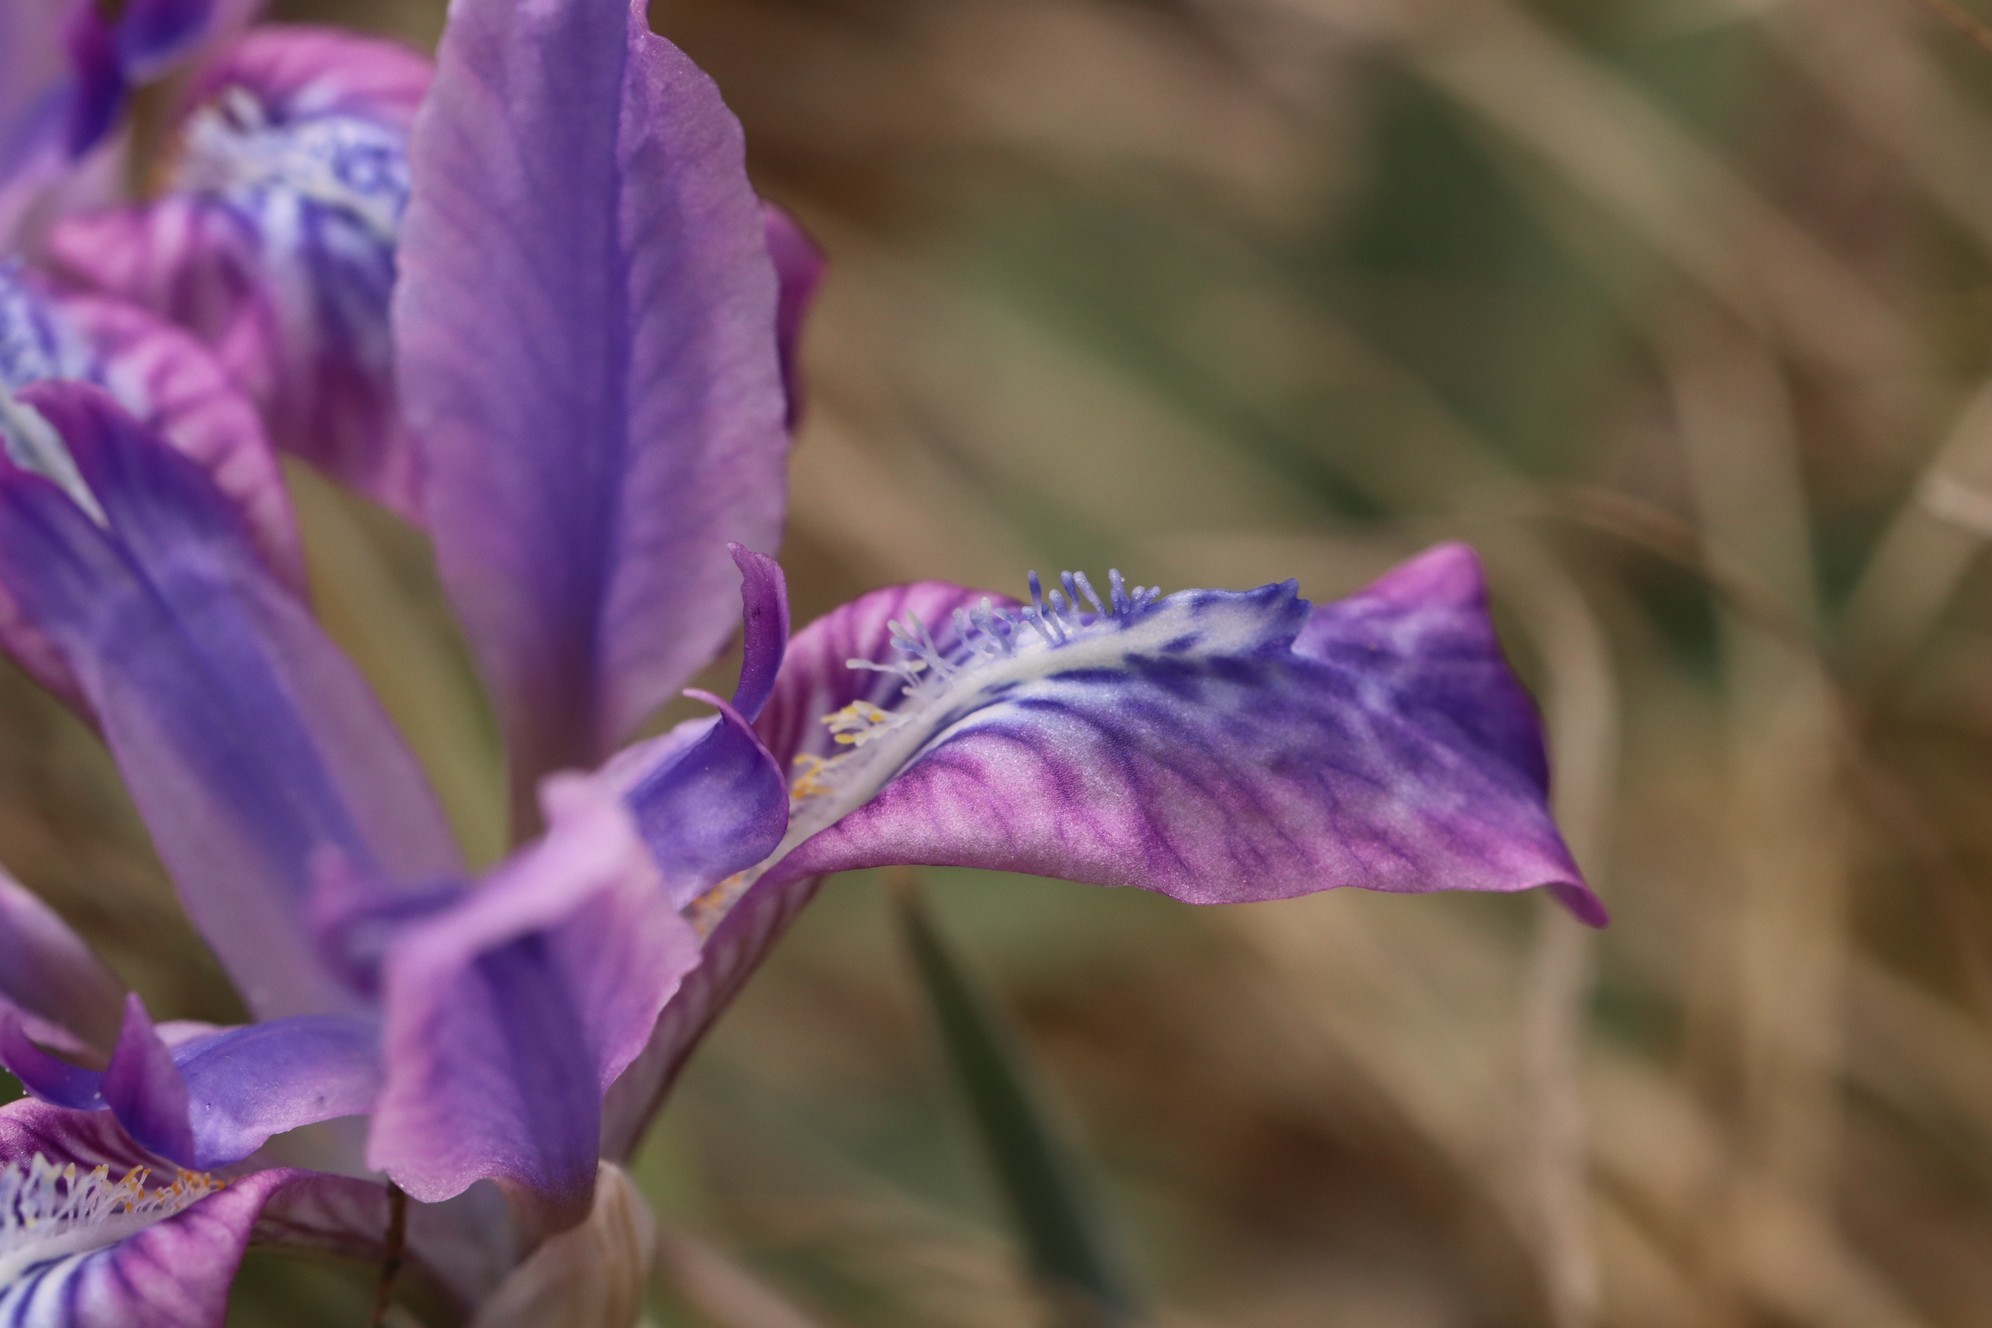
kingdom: Plantae
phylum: Tracheophyta
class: Liliopsida
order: Asparagales
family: Iridaceae
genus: Iris
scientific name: Iris tigridia
